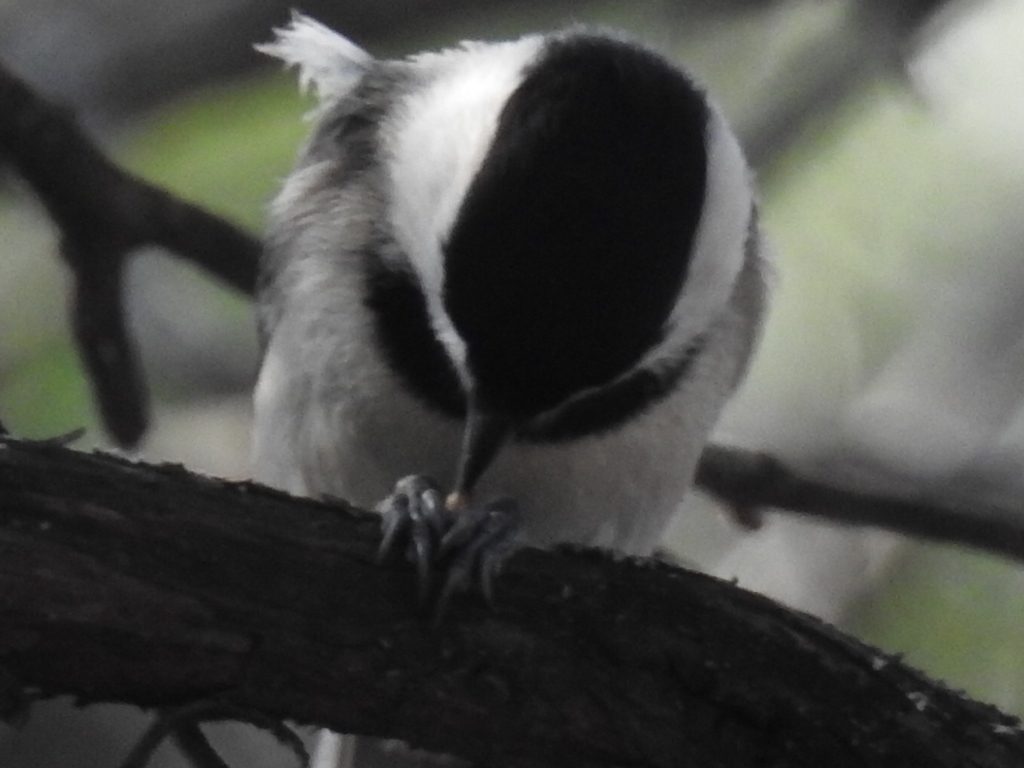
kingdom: Animalia
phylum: Chordata
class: Aves
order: Passeriformes
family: Paridae
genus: Poecile
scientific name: Poecile carolinensis
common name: Carolina chickadee
